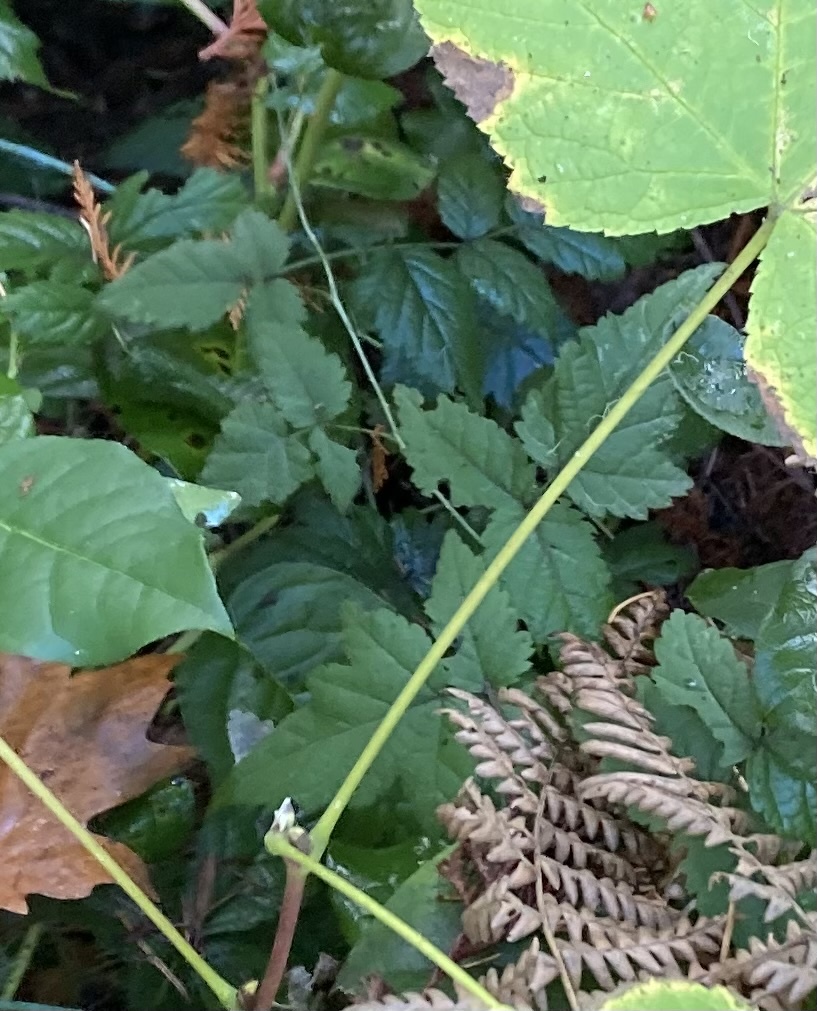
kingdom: Plantae
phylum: Tracheophyta
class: Magnoliopsida
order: Rosales
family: Rosaceae
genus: Rubus
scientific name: Rubus ursinus
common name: Pacific blackberry
